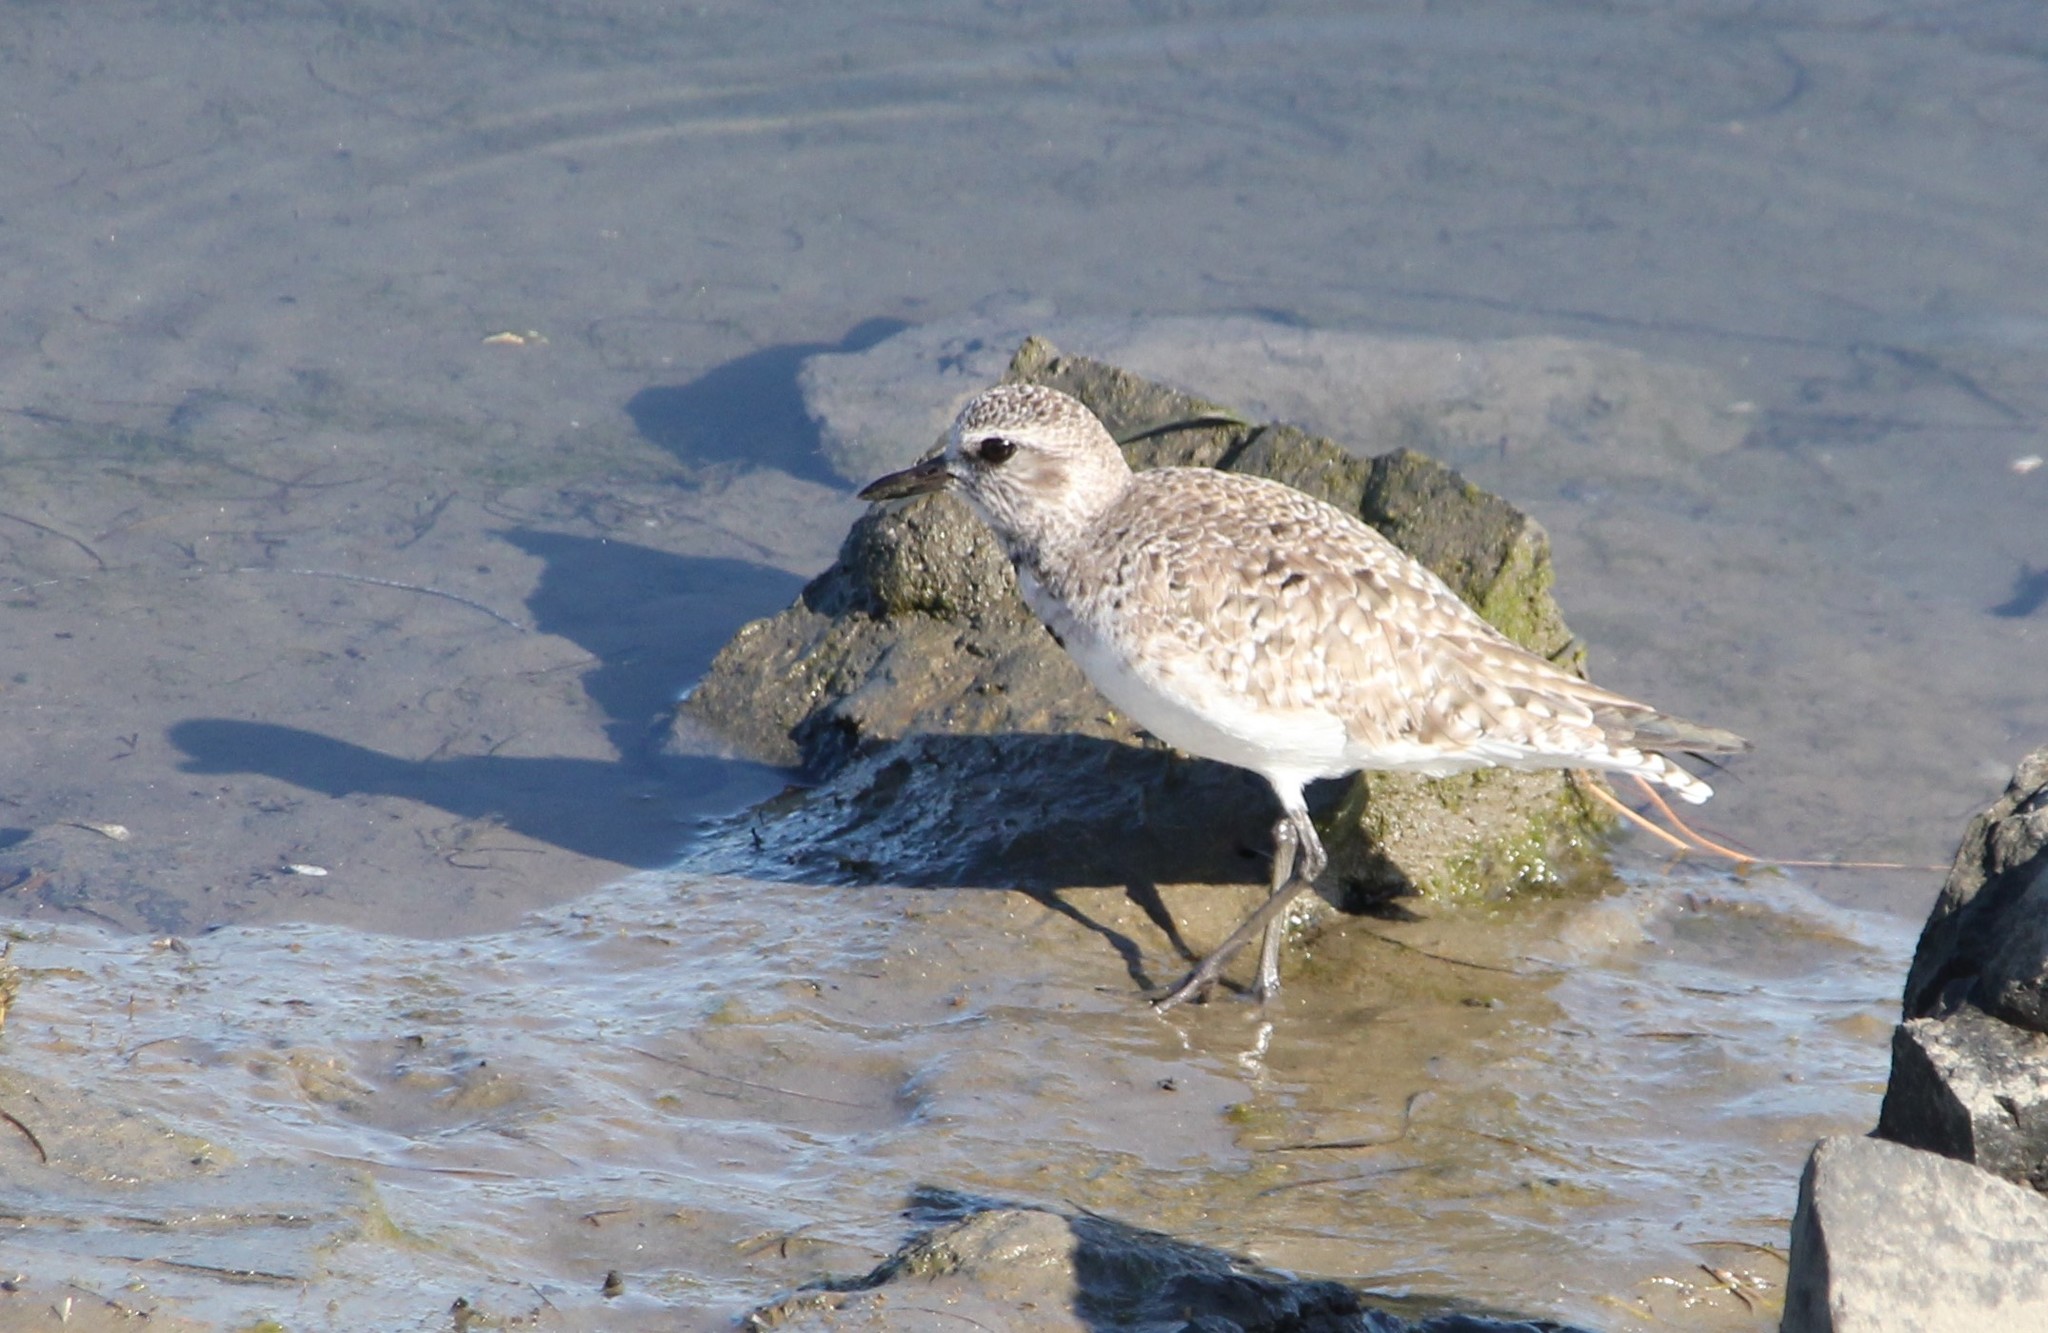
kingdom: Animalia
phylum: Chordata
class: Aves
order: Charadriiformes
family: Charadriidae
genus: Pluvialis
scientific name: Pluvialis squatarola
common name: Grey plover
